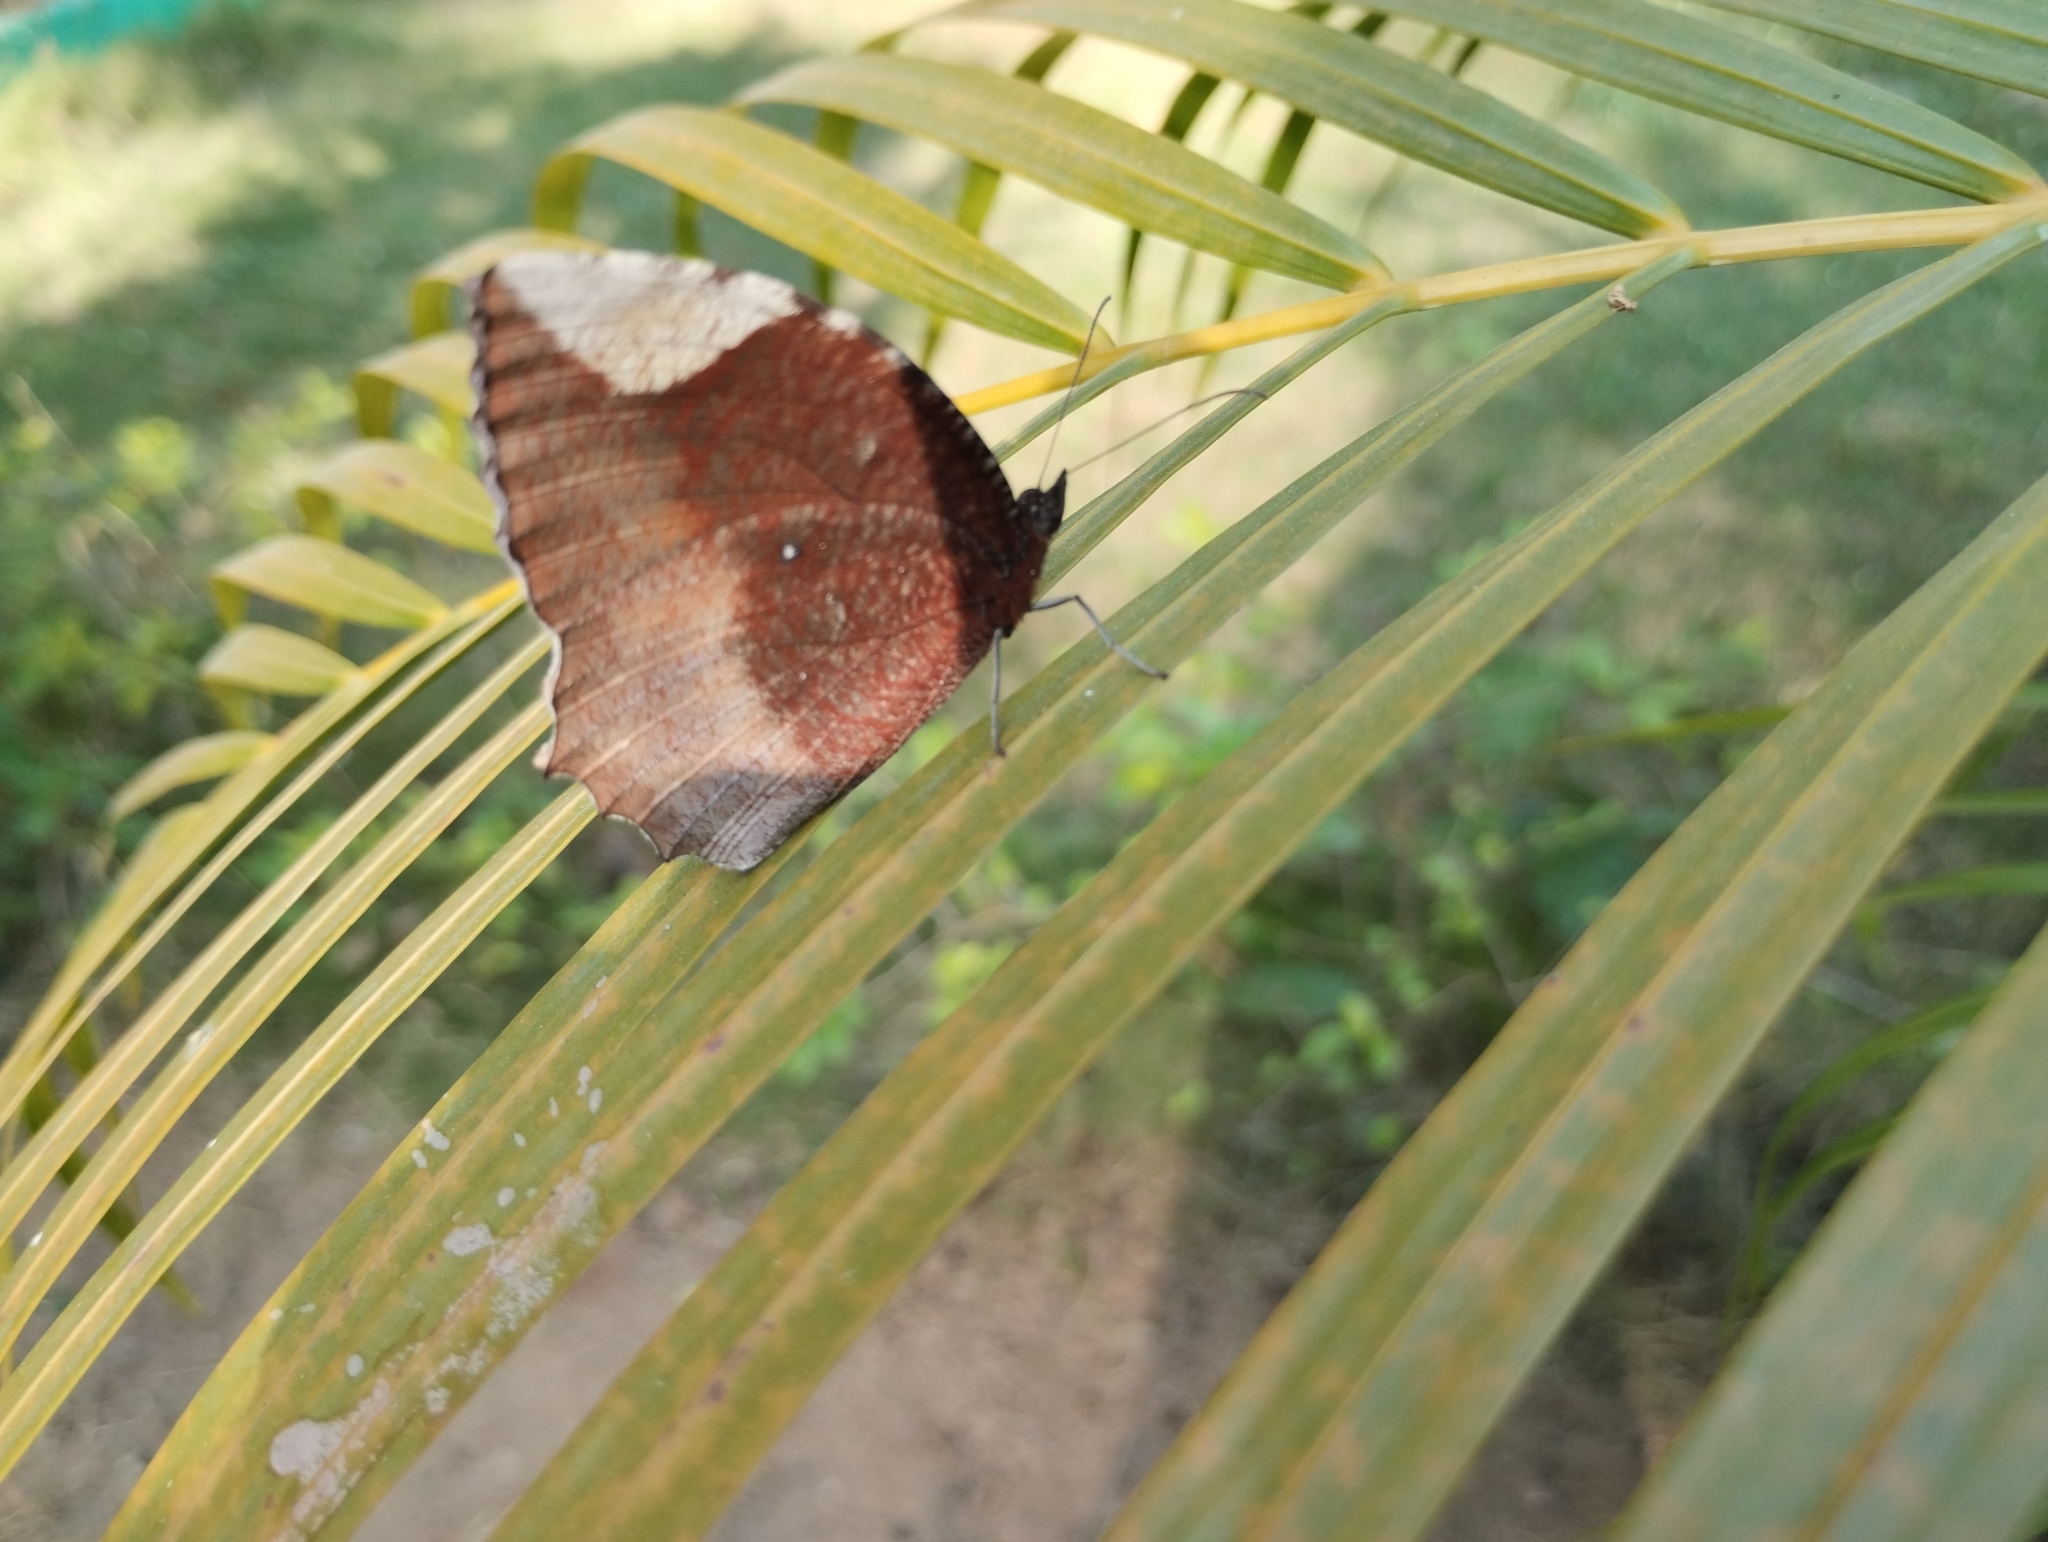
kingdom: Animalia
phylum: Arthropoda
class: Insecta
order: Lepidoptera
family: Nymphalidae
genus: Elymnias
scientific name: Elymnias hypermnestra
